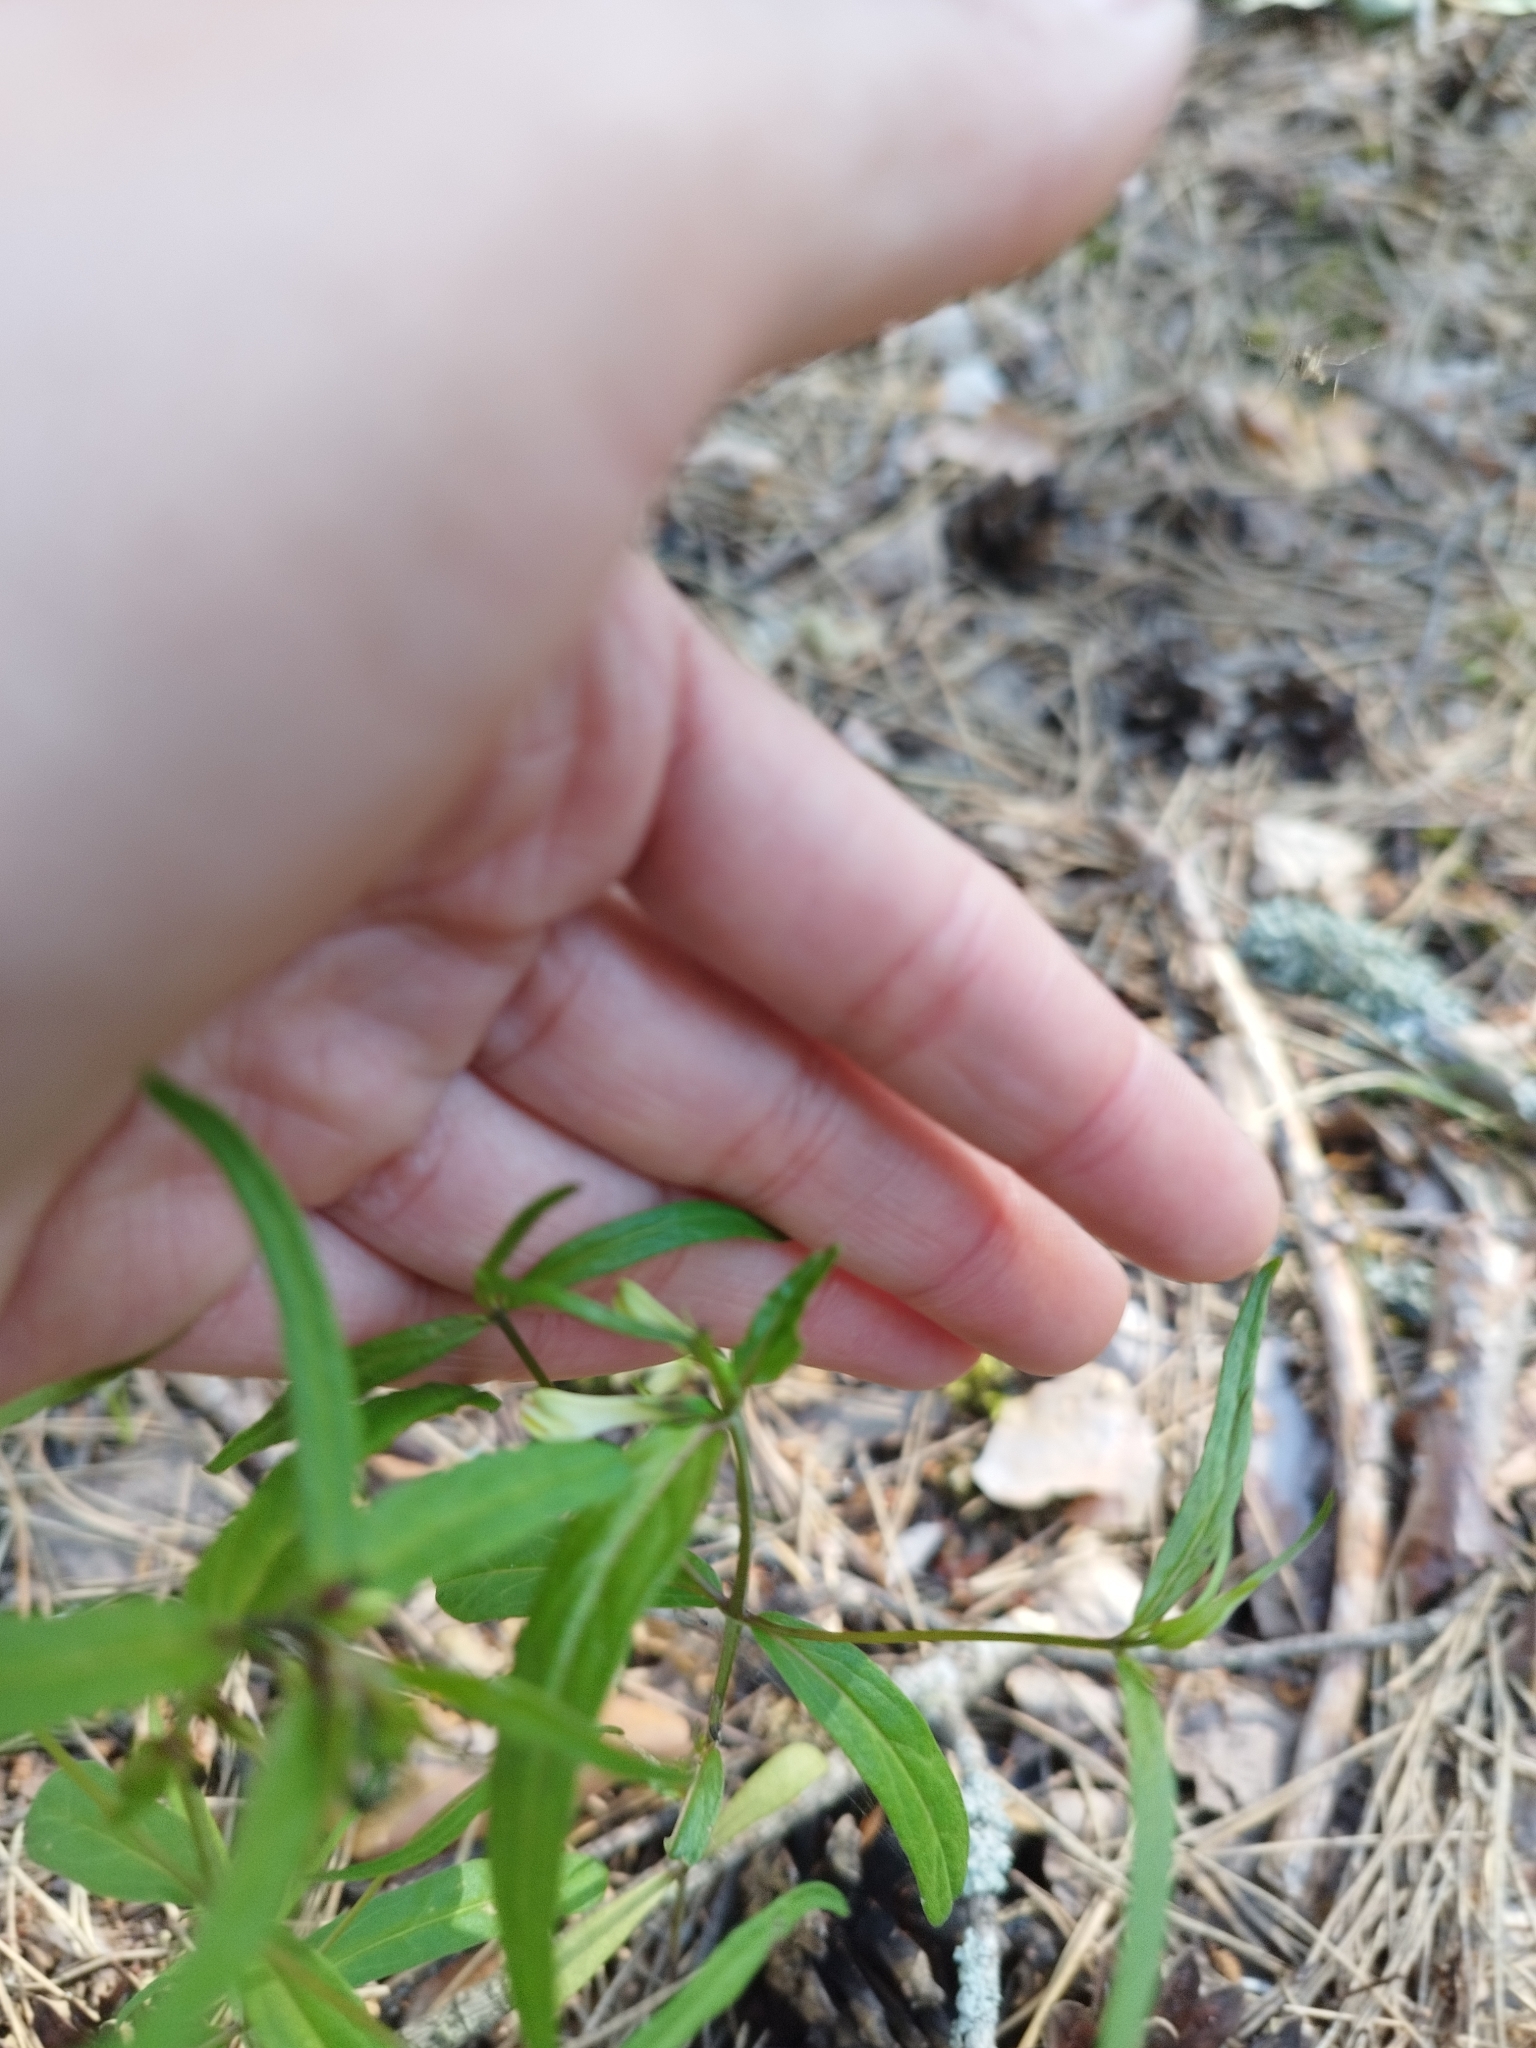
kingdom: Plantae
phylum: Tracheophyta
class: Magnoliopsida
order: Lamiales
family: Orobanchaceae
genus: Melampyrum
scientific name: Melampyrum pratense
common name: Common cow-wheat
